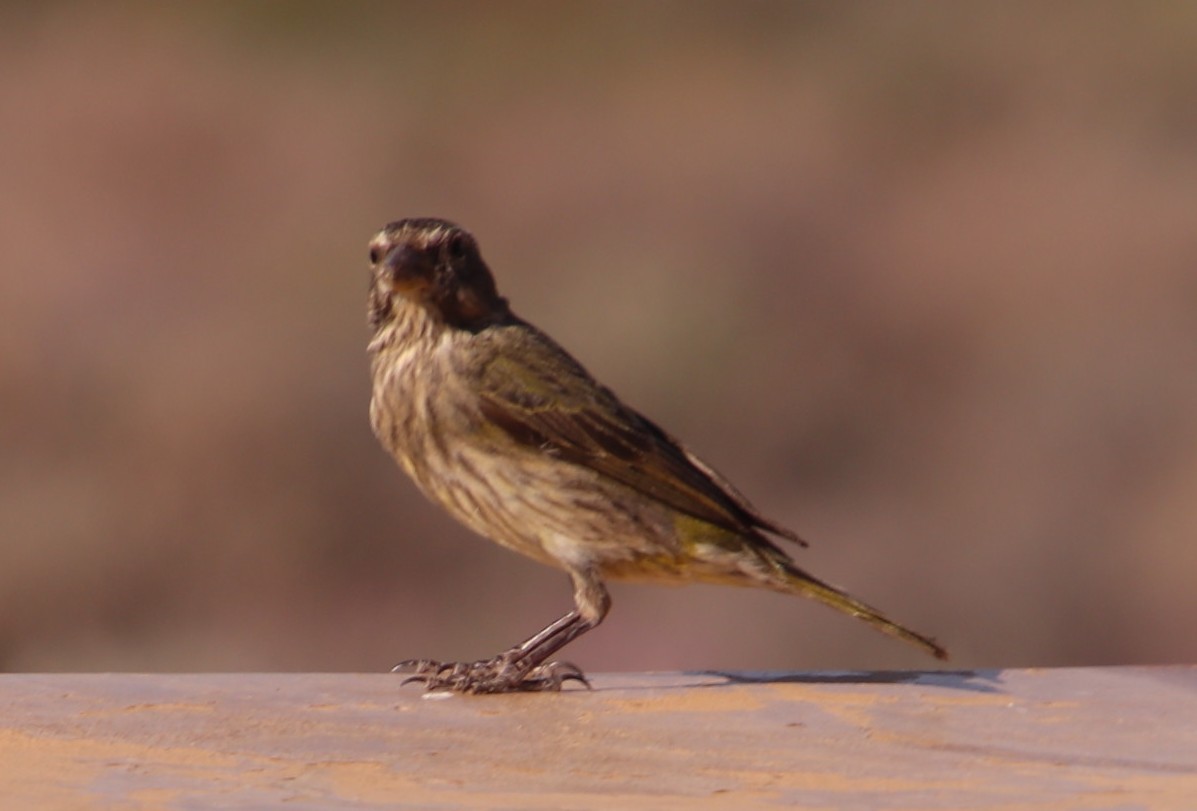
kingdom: Animalia
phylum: Chordata
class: Aves
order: Passeriformes
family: Fringillidae
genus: Crithagra
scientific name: Crithagra flaviventris
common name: Yellow canary
